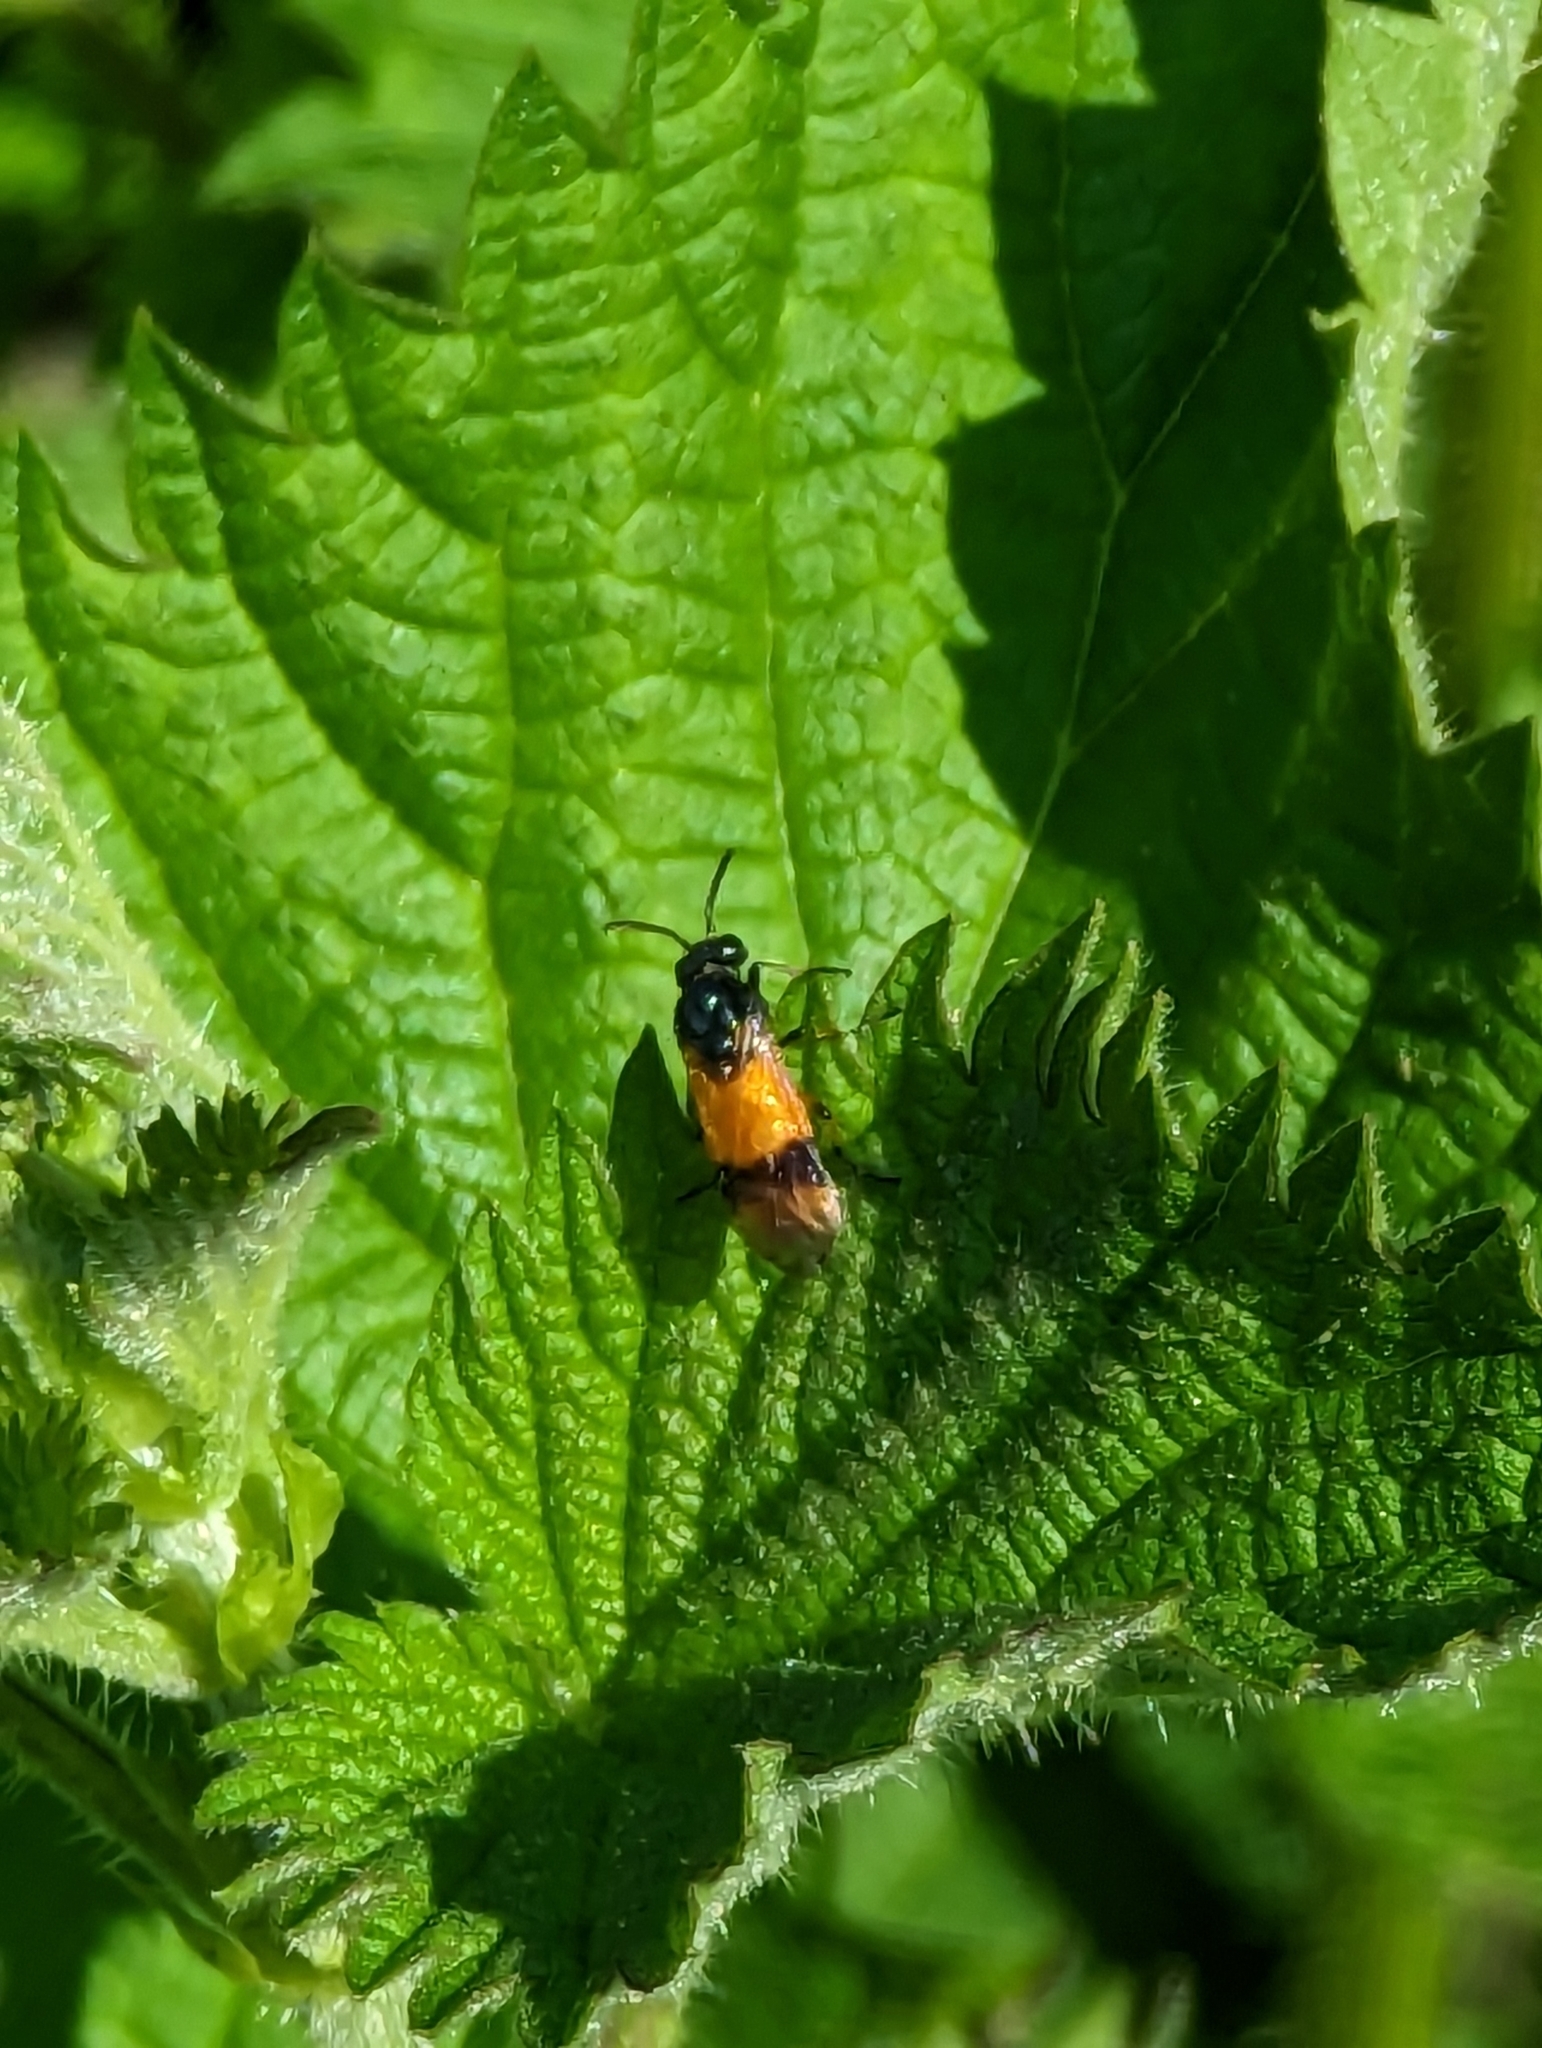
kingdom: Animalia
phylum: Arthropoda
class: Insecta
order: Hymenoptera
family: Argidae
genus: Arge
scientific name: Arge cyanocrocea
